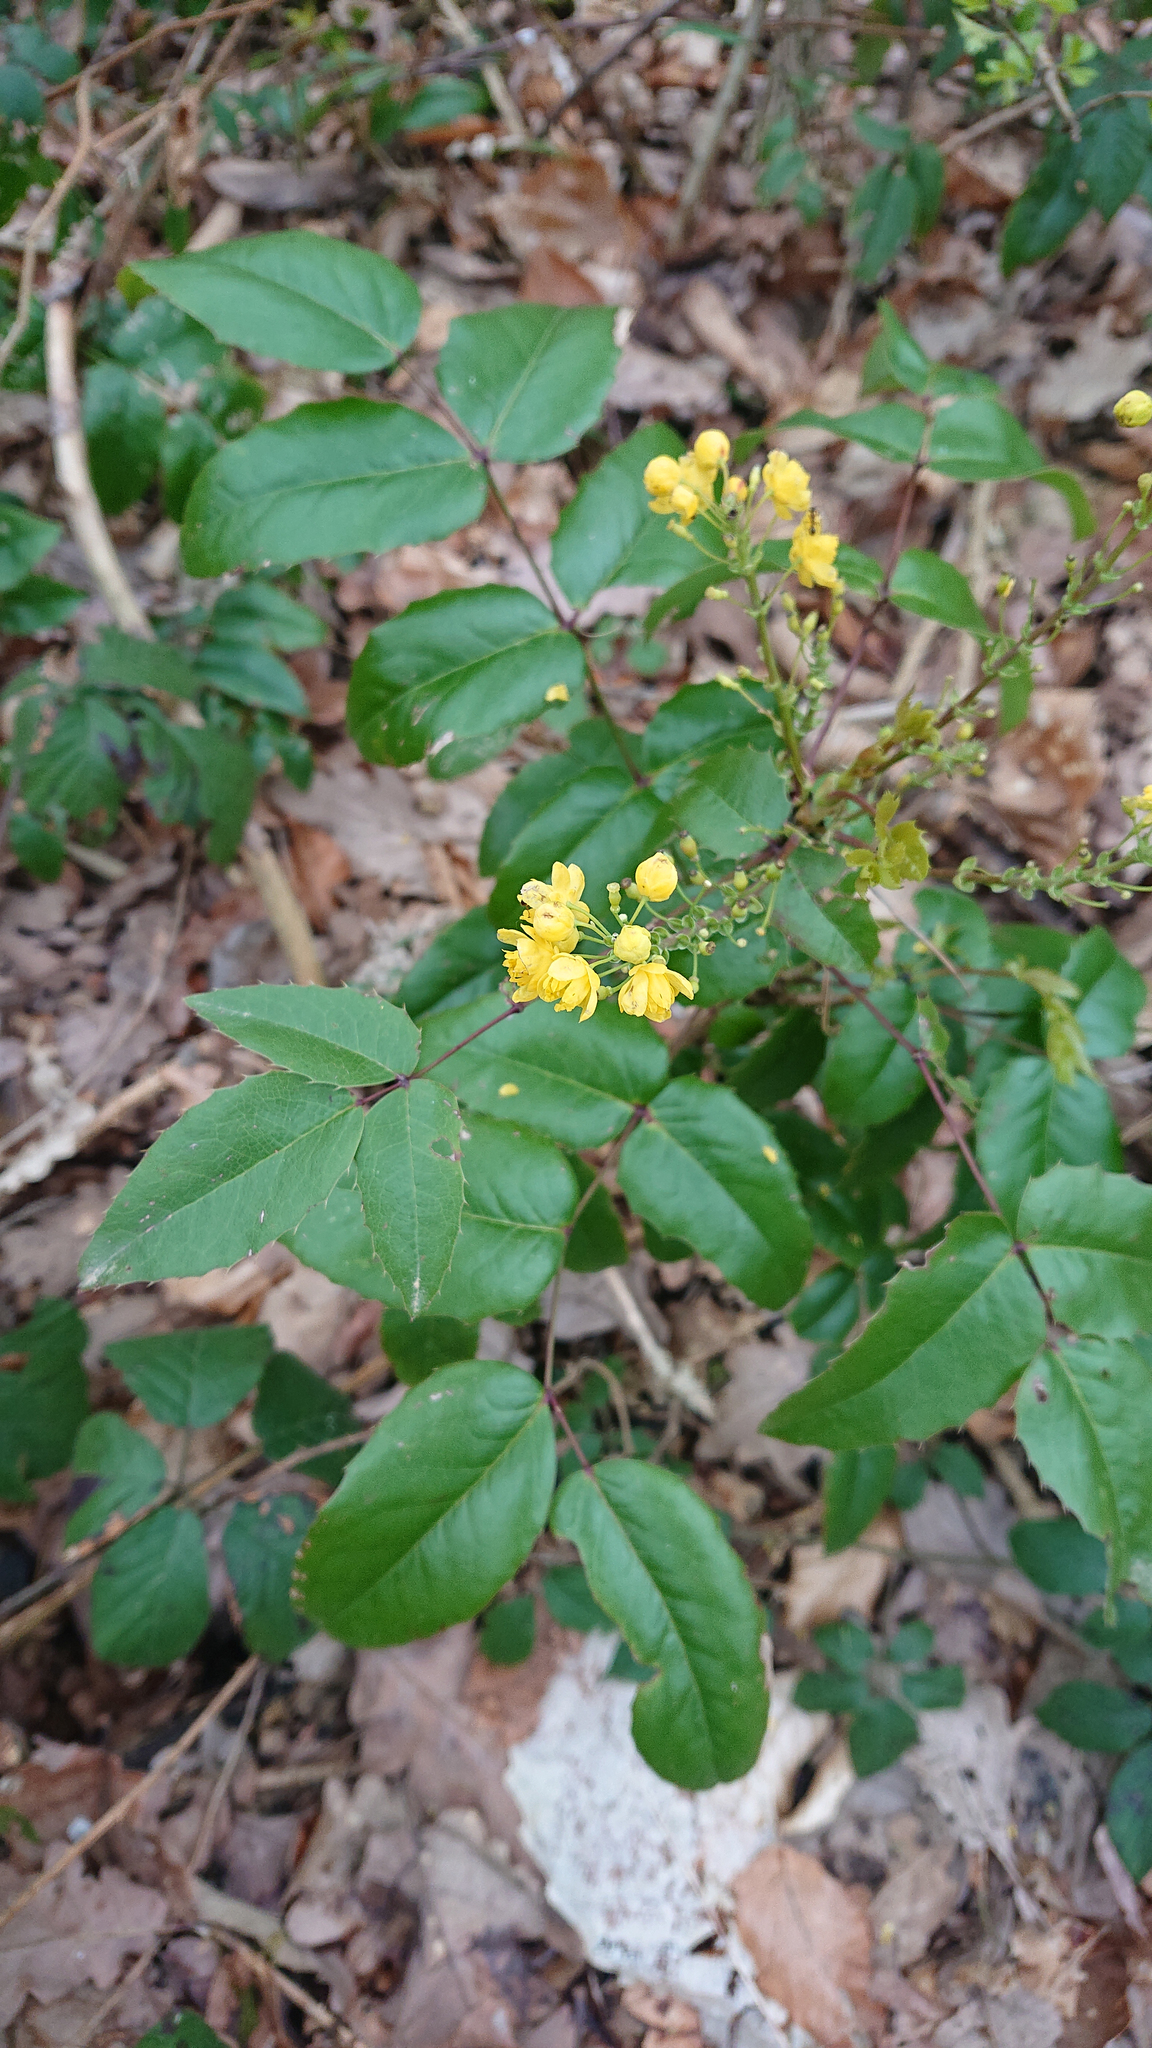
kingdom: Plantae
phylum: Tracheophyta
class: Magnoliopsida
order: Ranunculales
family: Berberidaceae
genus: Mahonia
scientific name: Mahonia aquifolium
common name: Oregon-grape
